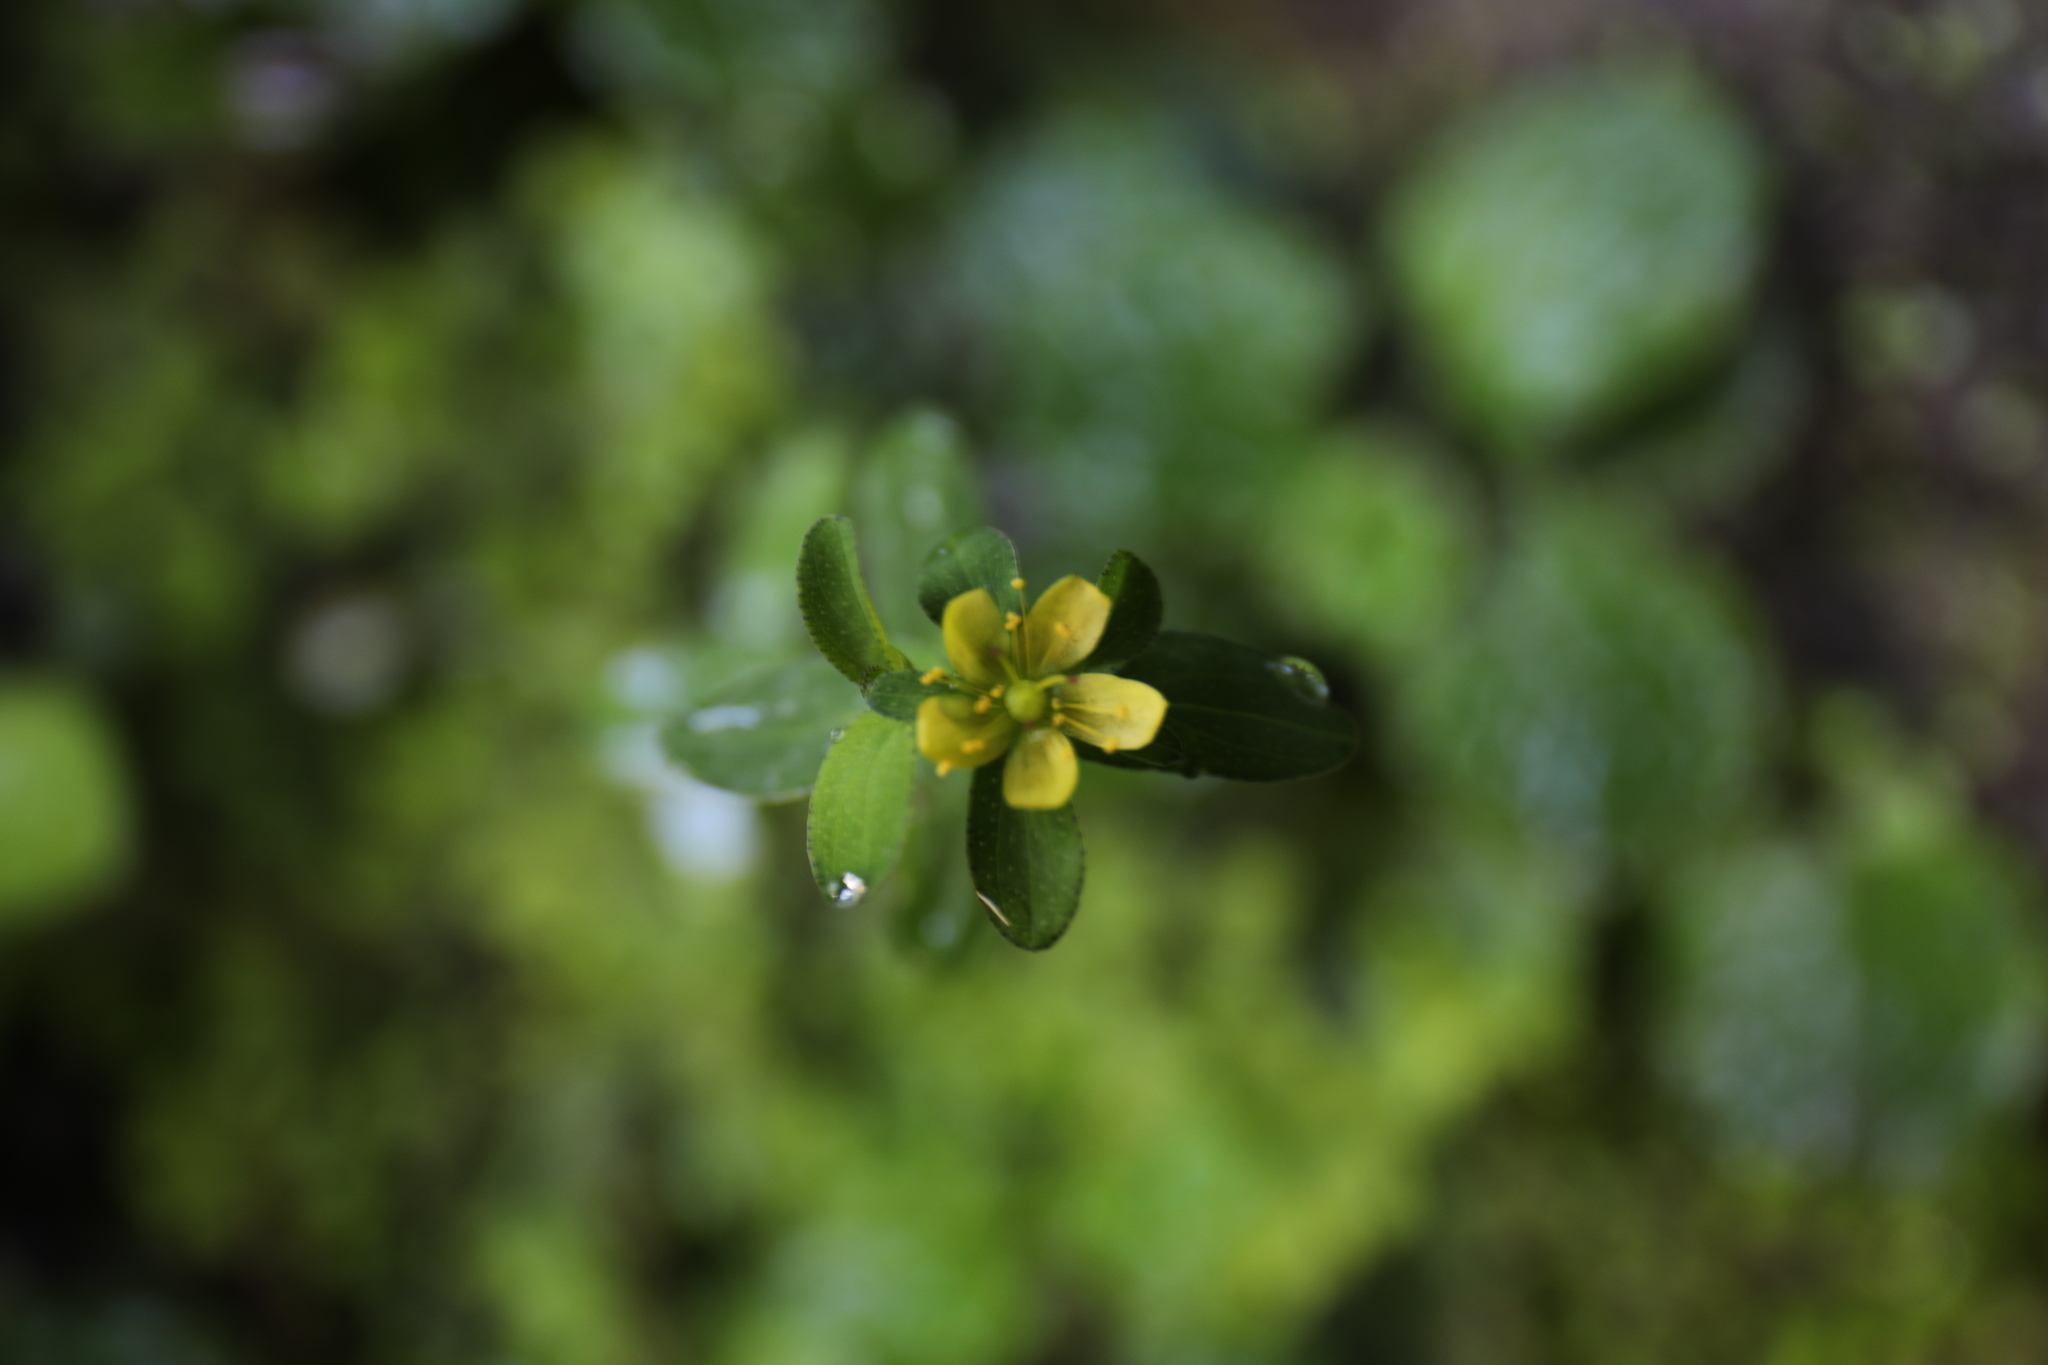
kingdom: Plantae
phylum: Tracheophyta
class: Magnoliopsida
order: Malpighiales
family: Hypericaceae
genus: Hypericum
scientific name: Hypericum taihezanense
